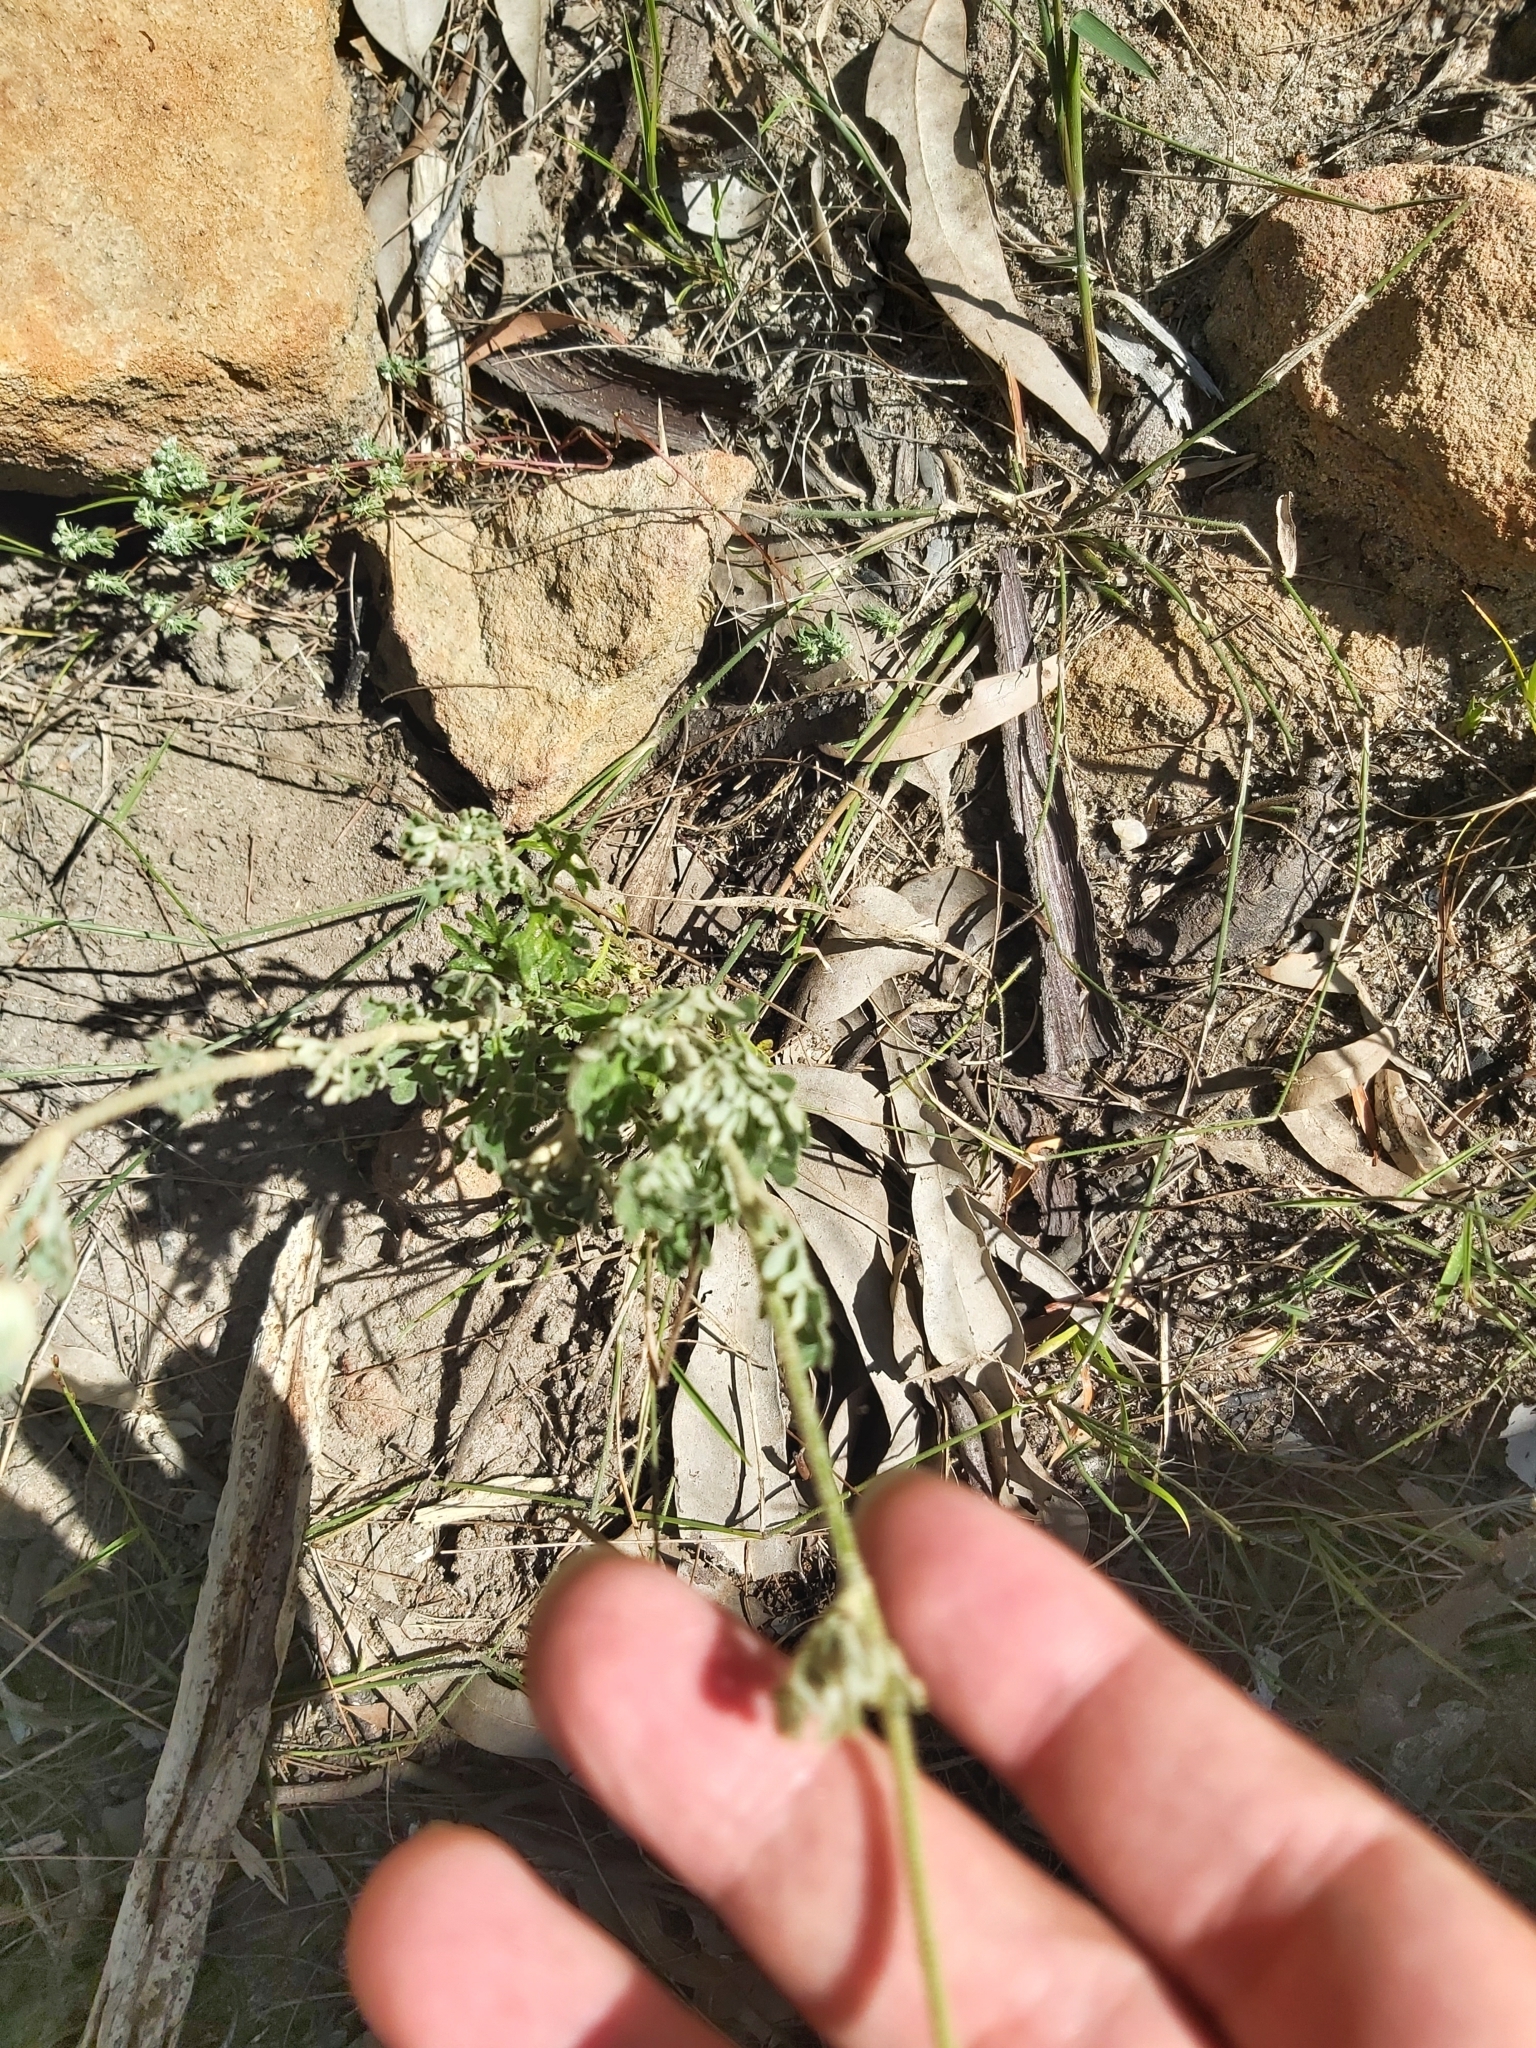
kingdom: Plantae
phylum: Tracheophyta
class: Magnoliopsida
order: Apiales
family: Apiaceae
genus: Actinotus
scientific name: Actinotus helianthi
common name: Flannel-flower
